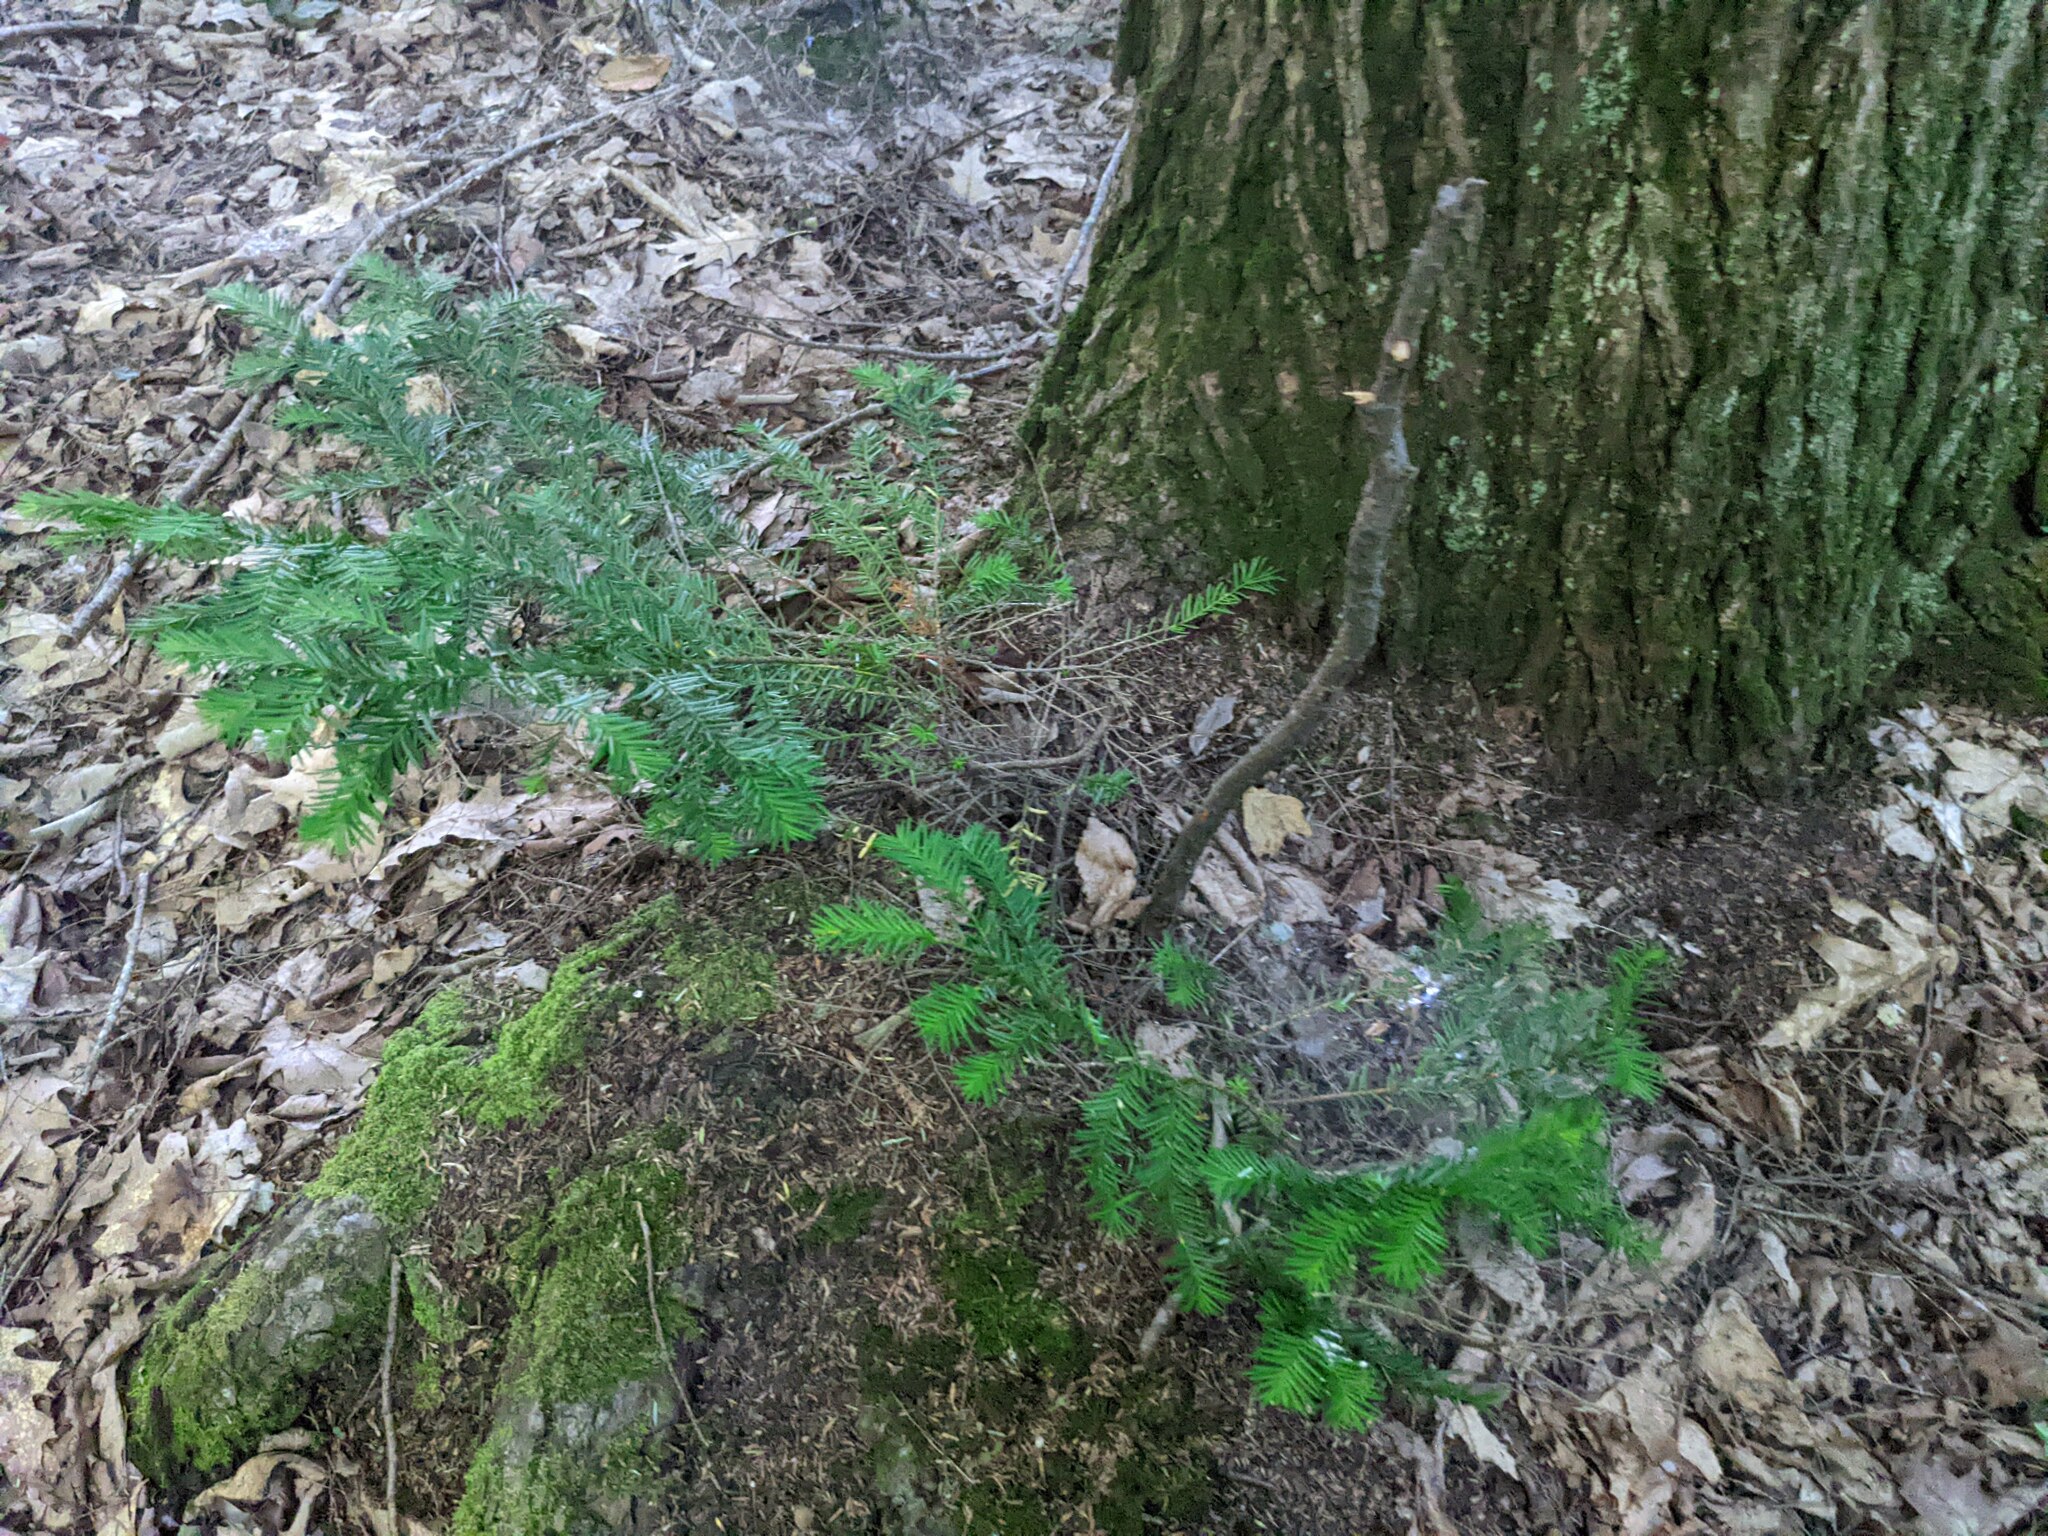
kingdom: Plantae
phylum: Tracheophyta
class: Pinopsida
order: Pinales
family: Taxaceae
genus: Taxus
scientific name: Taxus canadensis
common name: American yew
